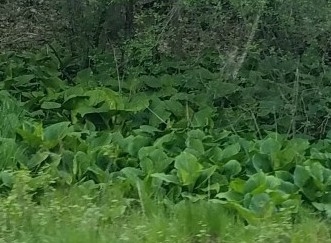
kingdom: Plantae
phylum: Tracheophyta
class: Liliopsida
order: Alismatales
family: Araceae
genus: Symplocarpus
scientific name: Symplocarpus foetidus
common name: Eastern skunk cabbage
